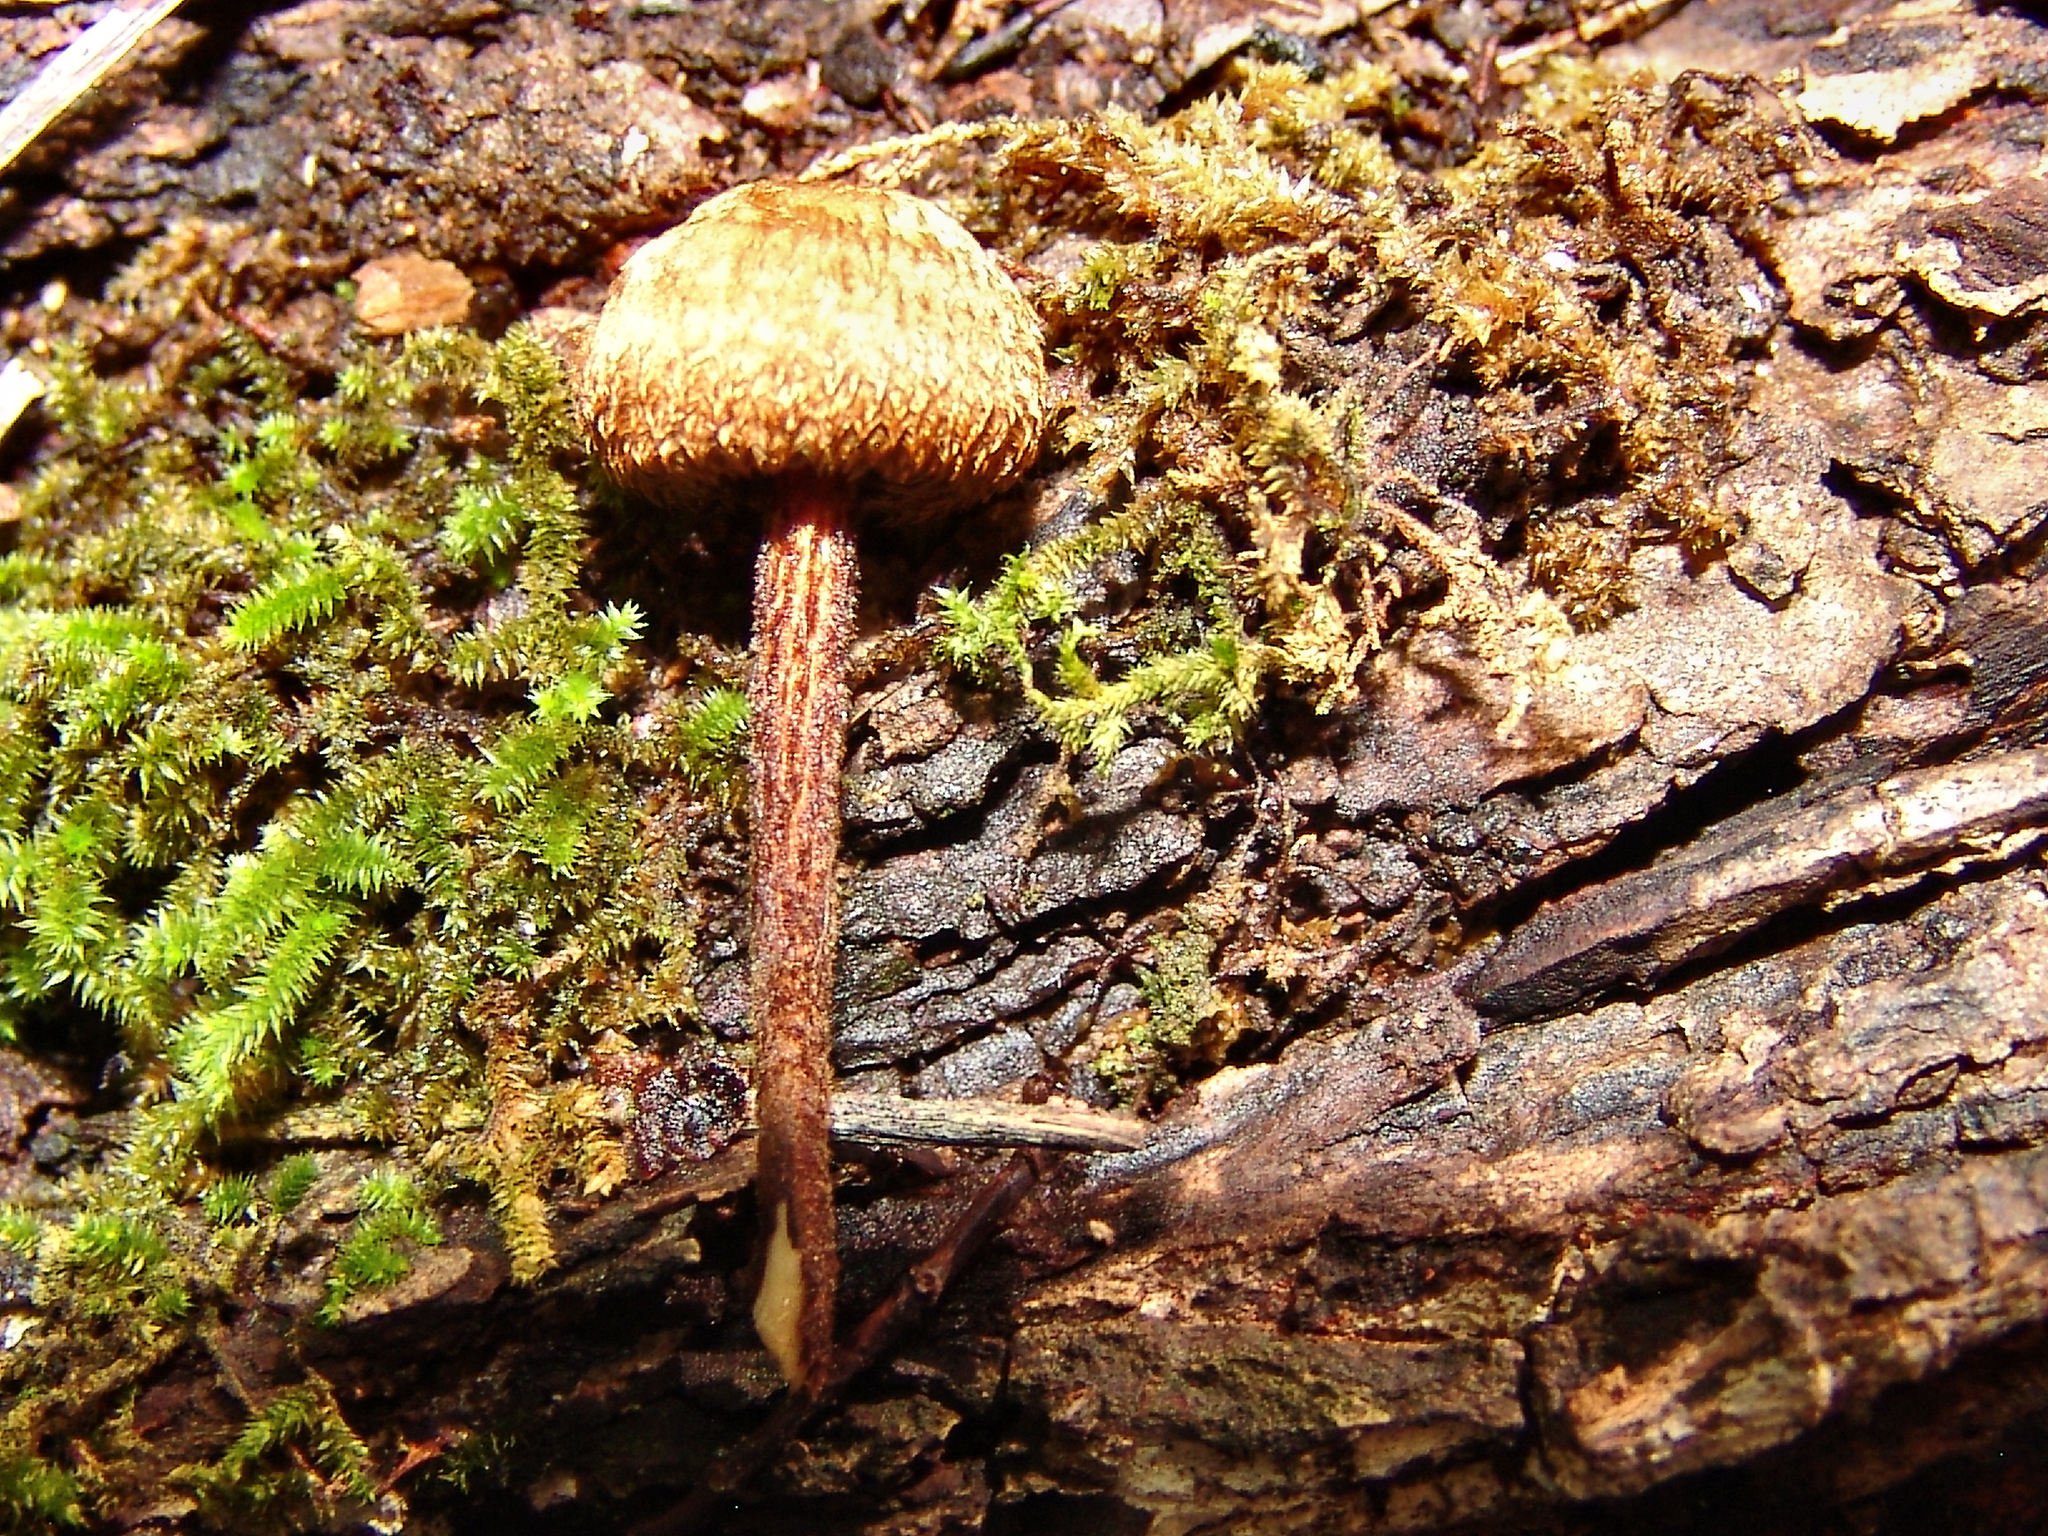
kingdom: Fungi
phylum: Basidiomycota
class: Agaricomycetes
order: Agaricales
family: Tricholomataceae
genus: Collybia
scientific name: Collybia zonata
